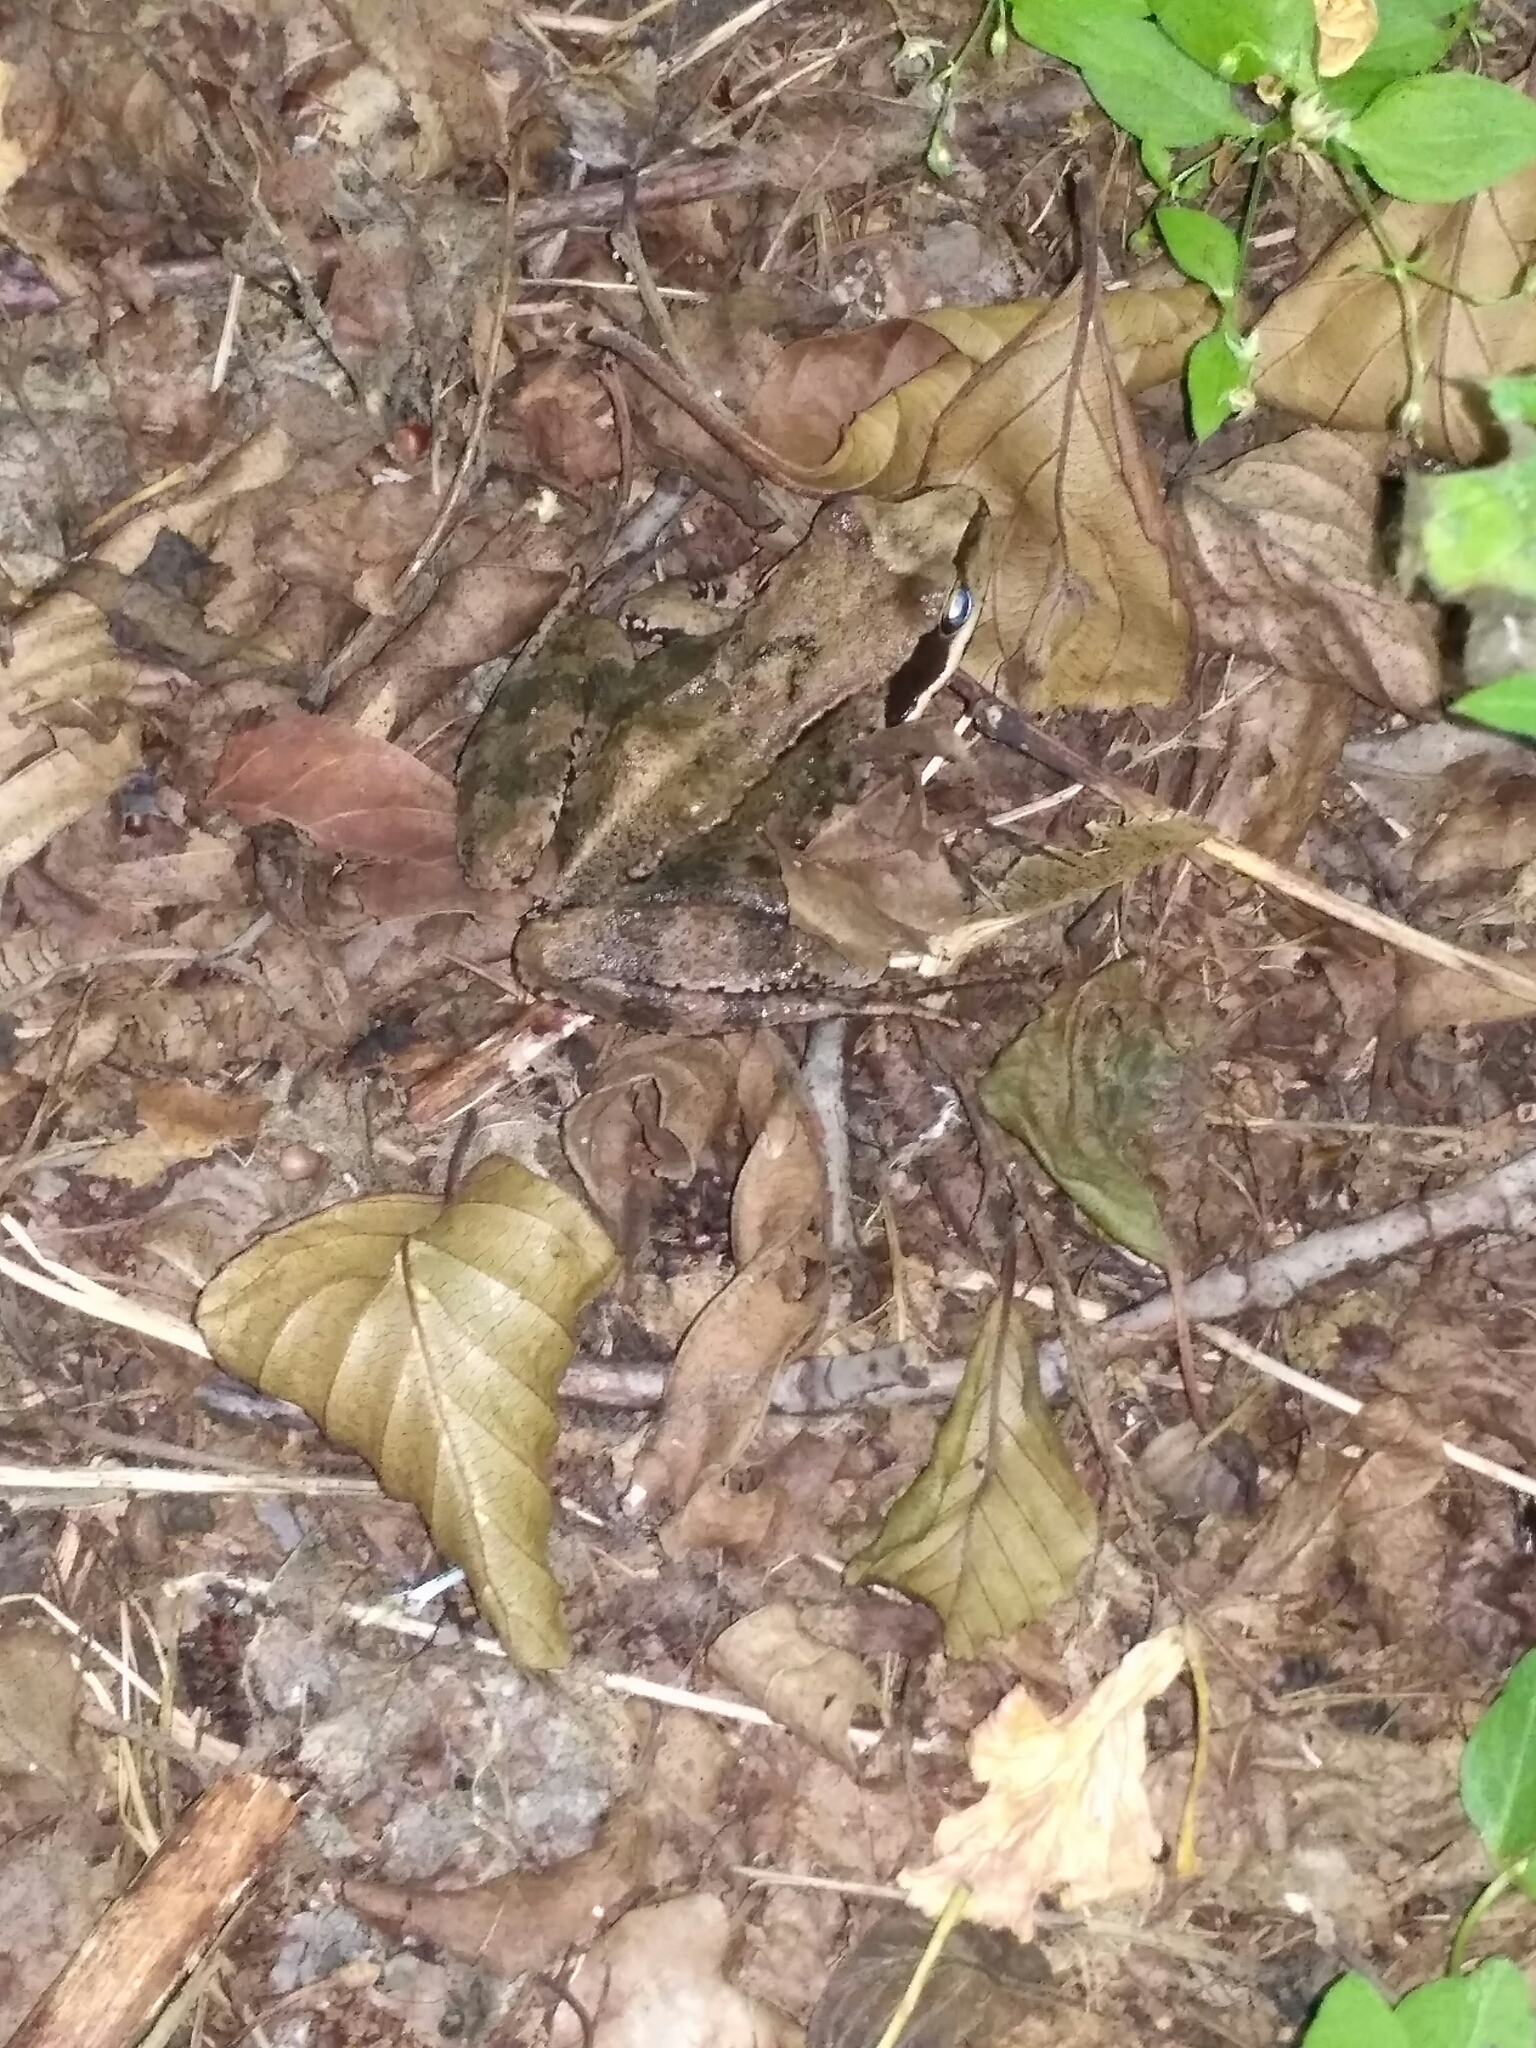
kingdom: Animalia
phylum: Chordata
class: Amphibia
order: Anura
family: Ranidae
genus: Rana
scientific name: Rana temporaria
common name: Common frog
